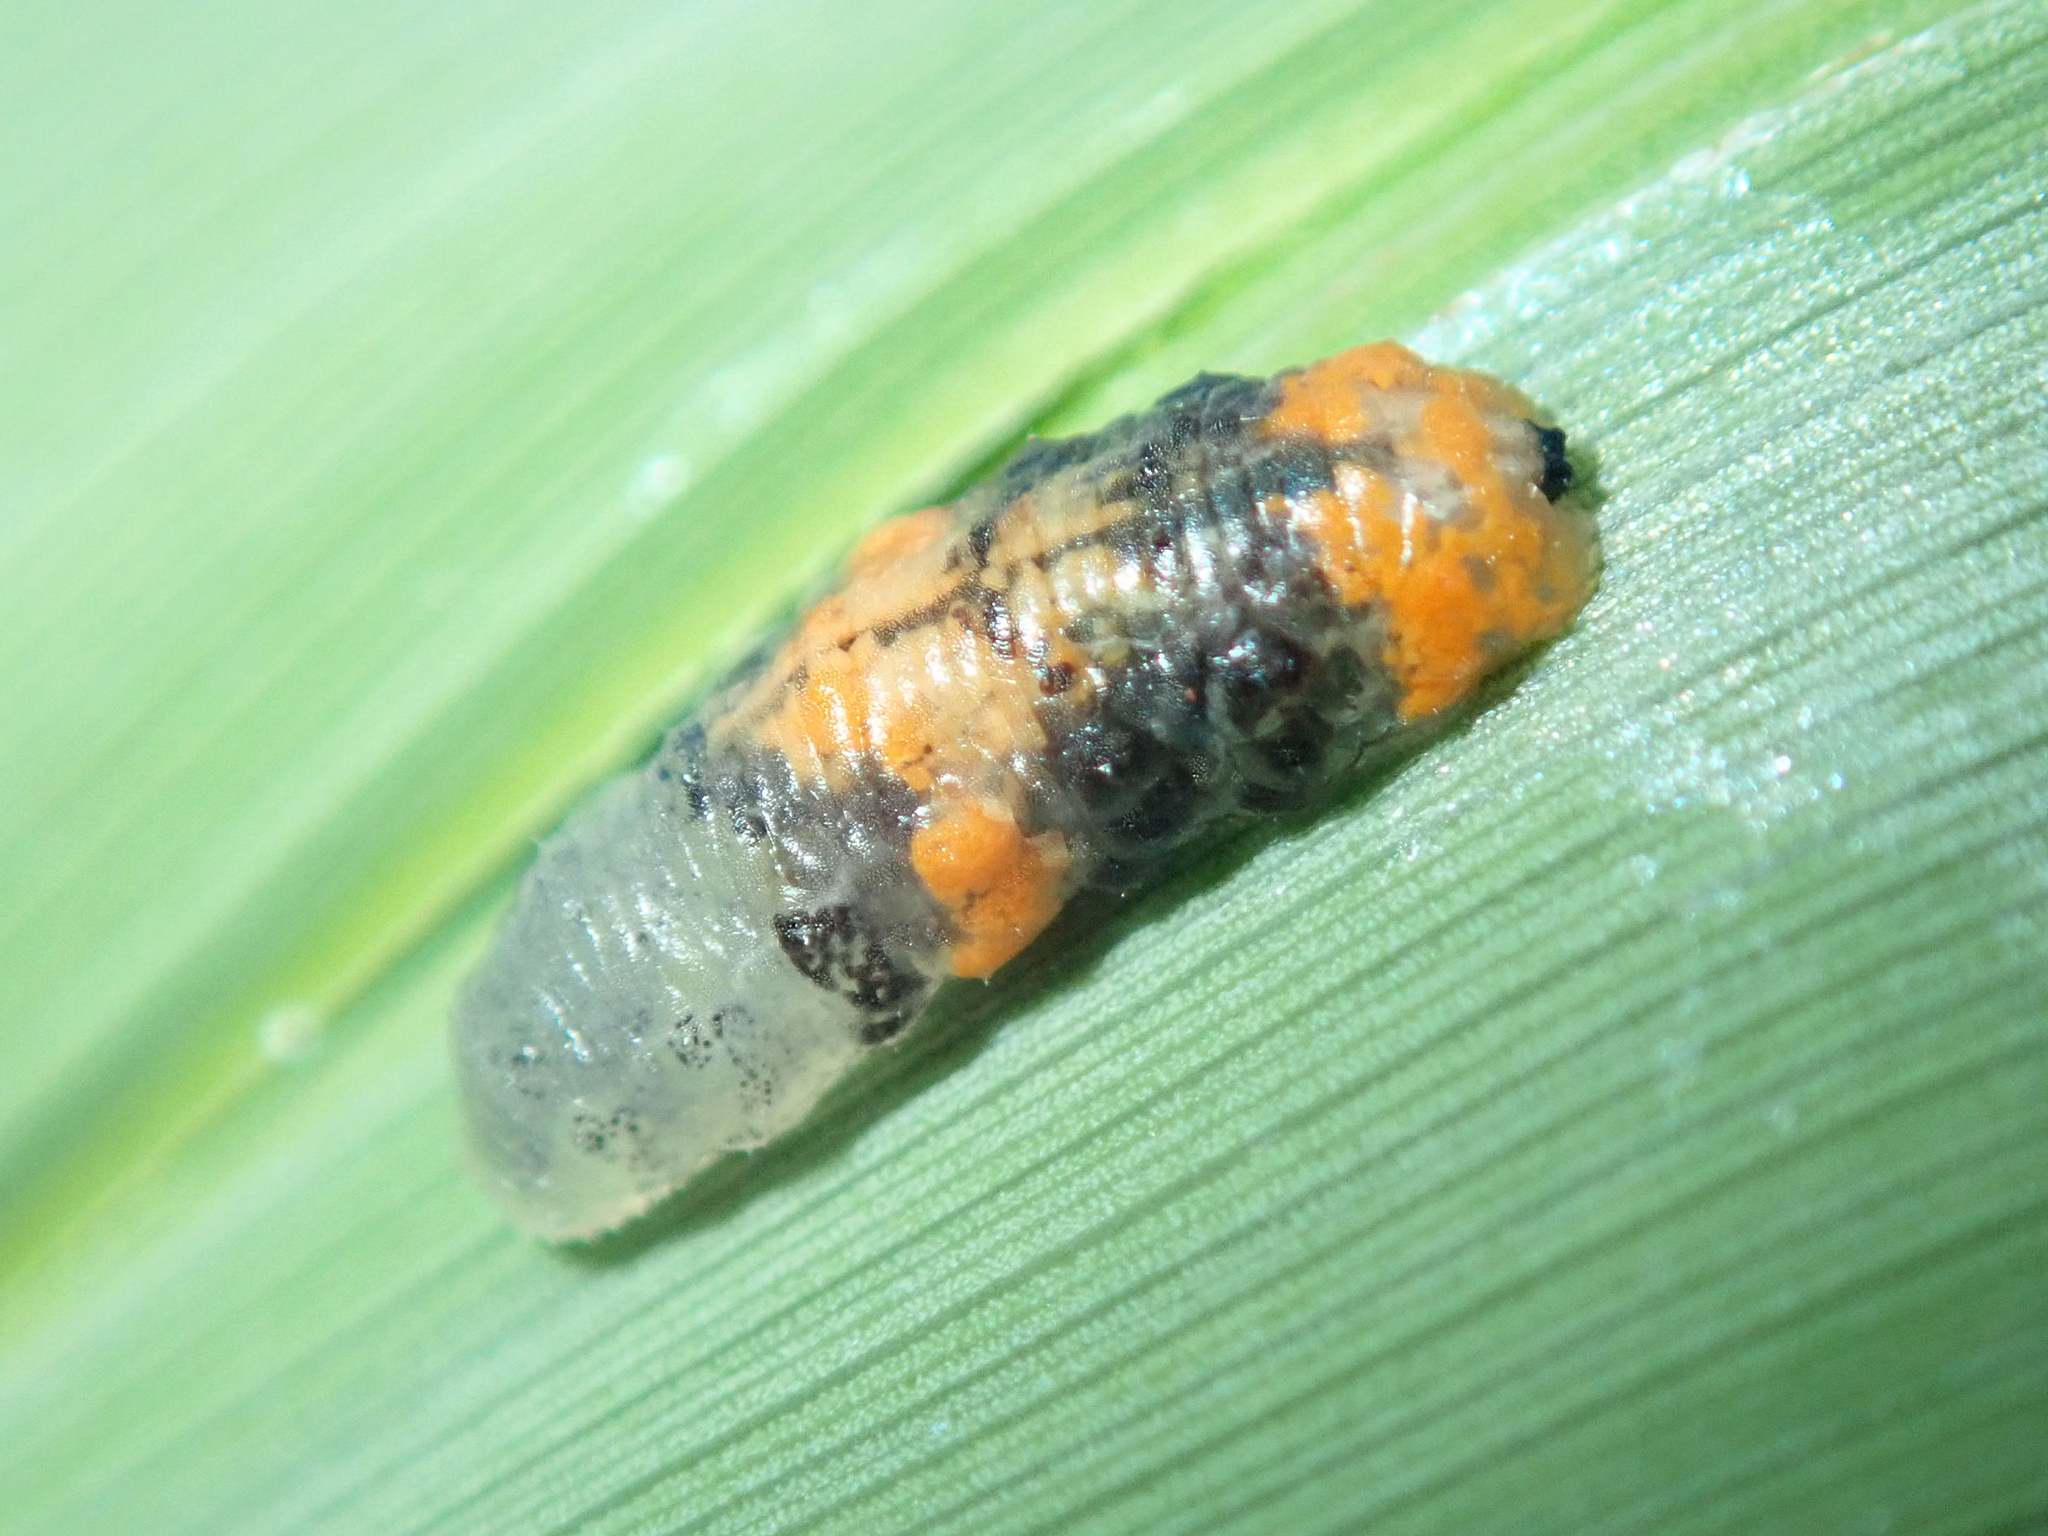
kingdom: Animalia
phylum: Arthropoda
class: Insecta
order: Diptera
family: Syrphidae
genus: Ocyptamus
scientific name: Ocyptamus gastrostactus
